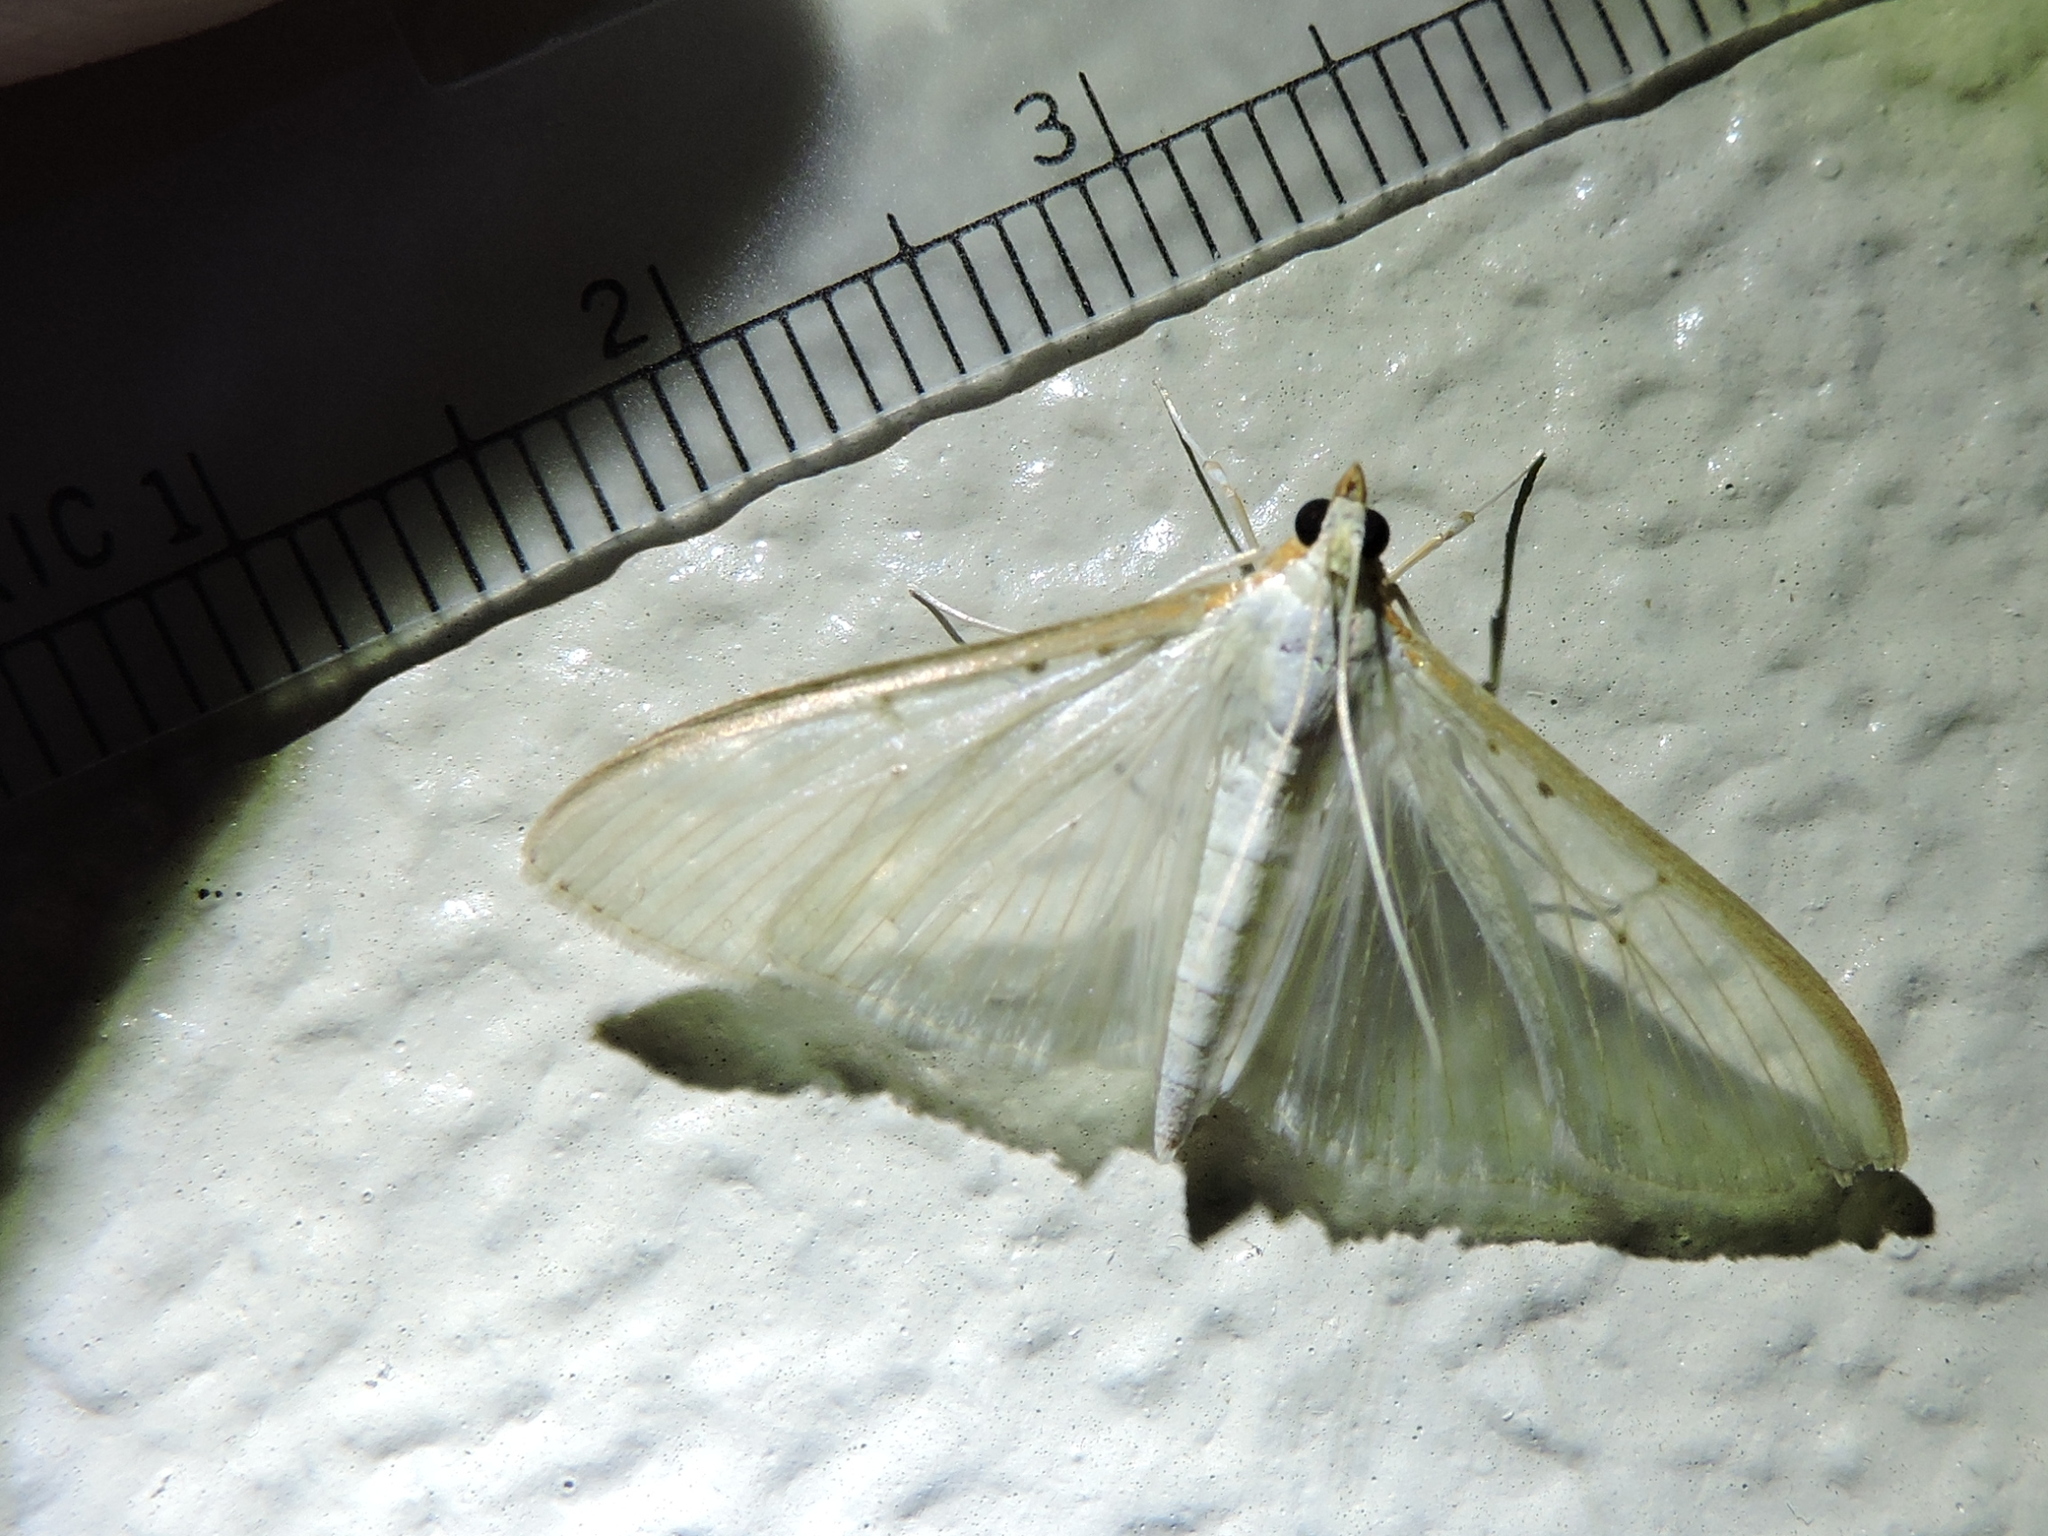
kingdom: Animalia
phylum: Arthropoda
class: Insecta
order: Lepidoptera
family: Crambidae
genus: Palpita
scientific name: Palpita quadristigmalis
